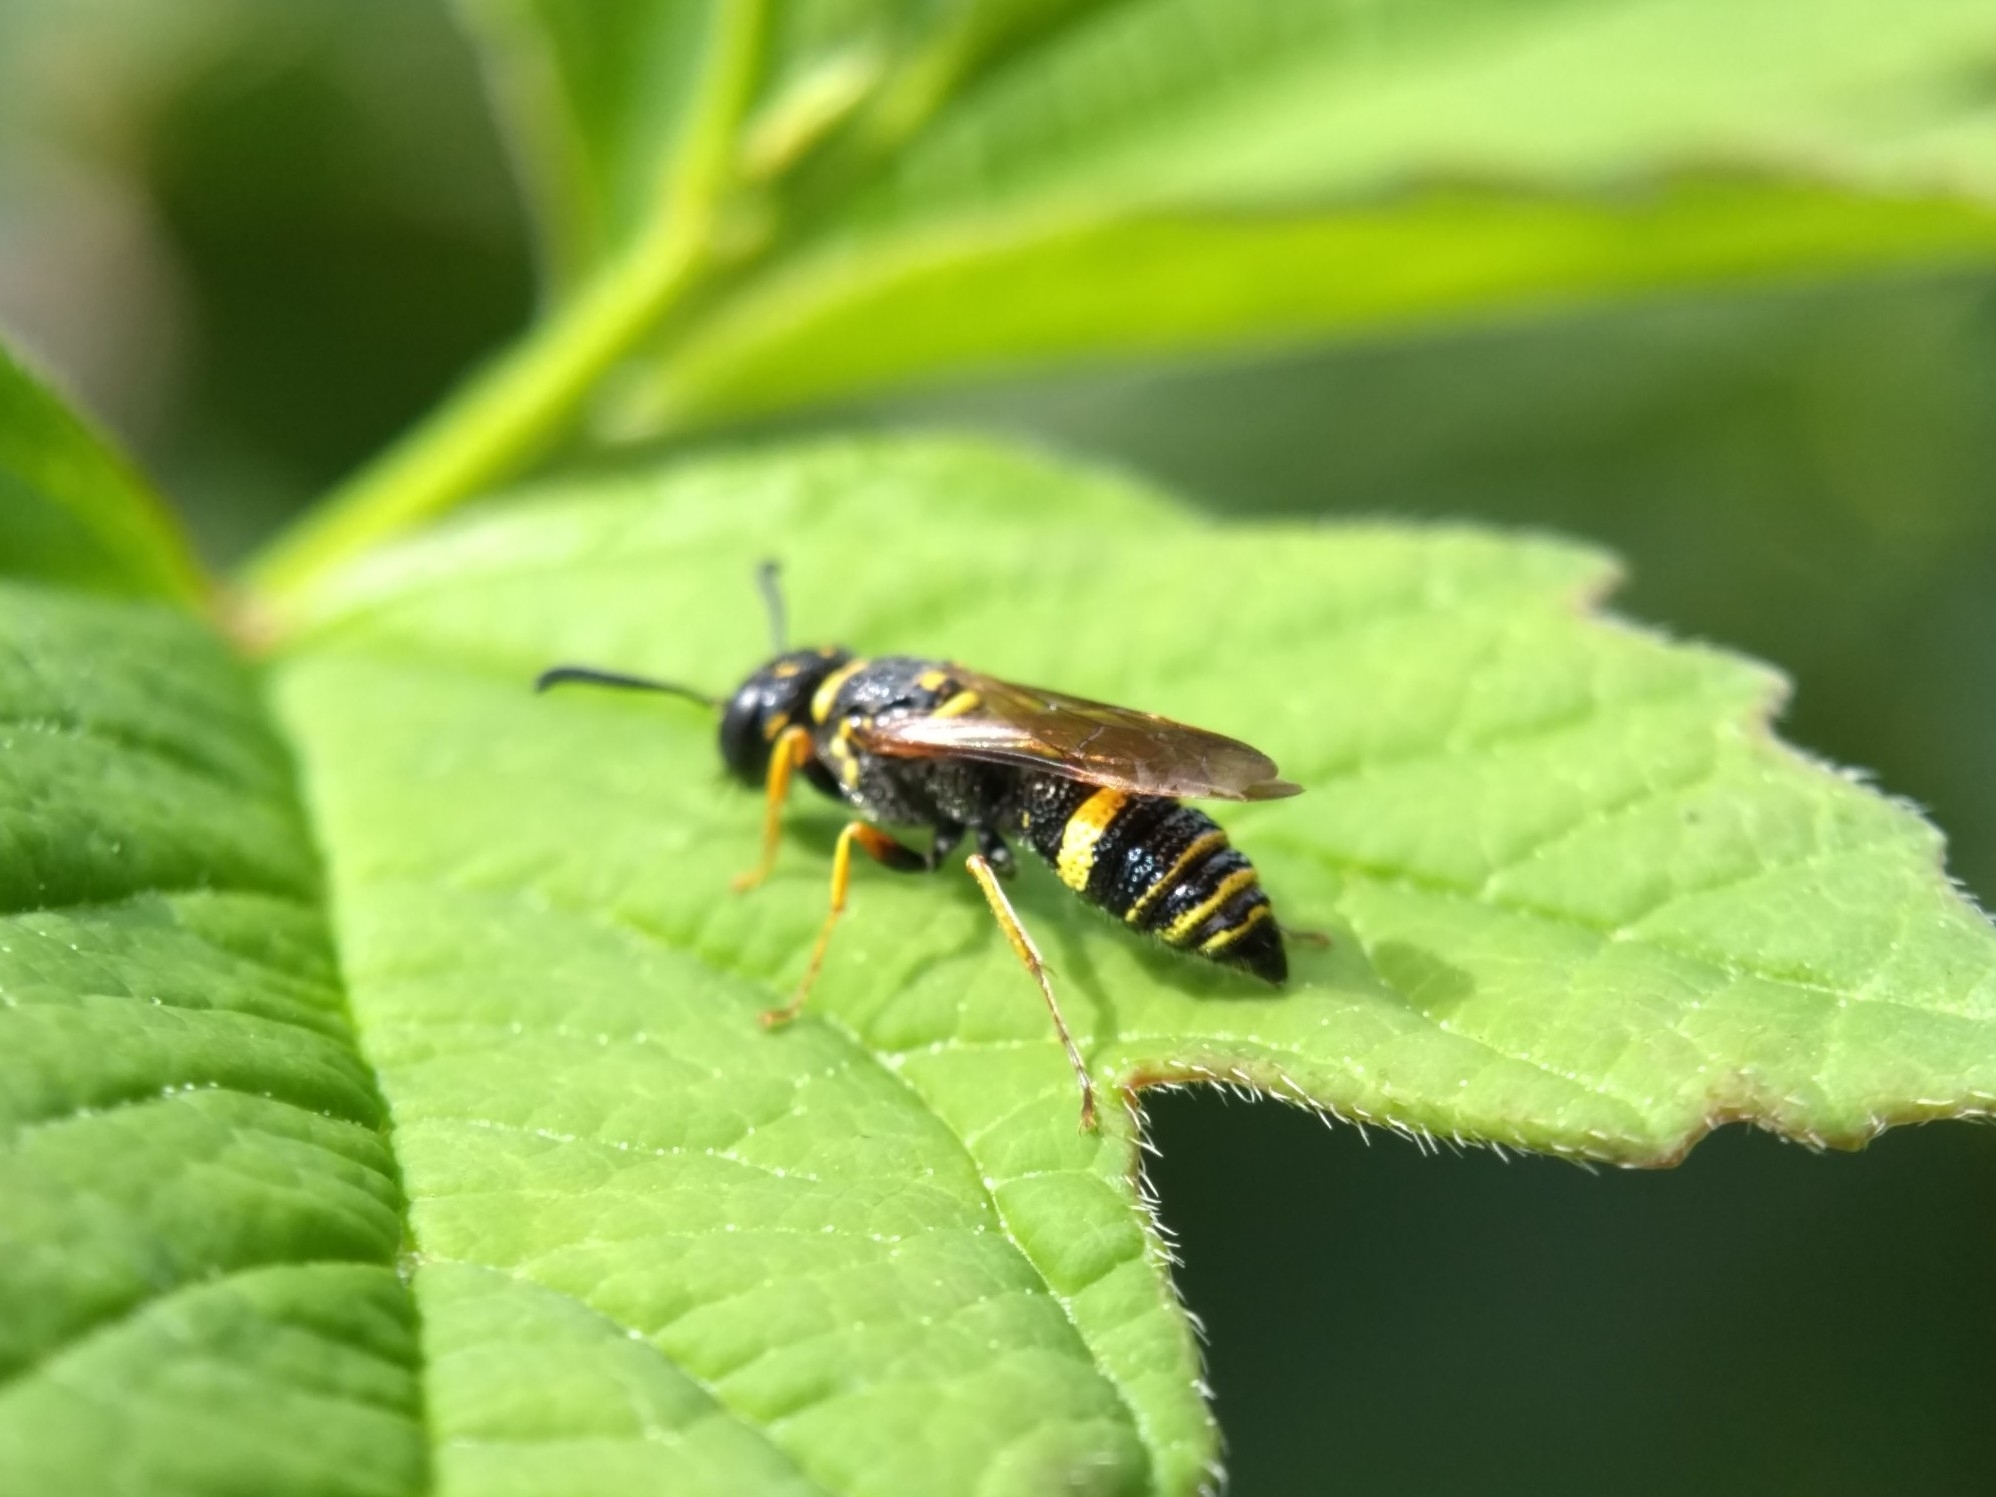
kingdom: Animalia
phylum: Arthropoda
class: Insecta
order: Hymenoptera
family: Crabronidae
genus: Philanthus
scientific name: Philanthus gibbosus
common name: Humped beewolf
